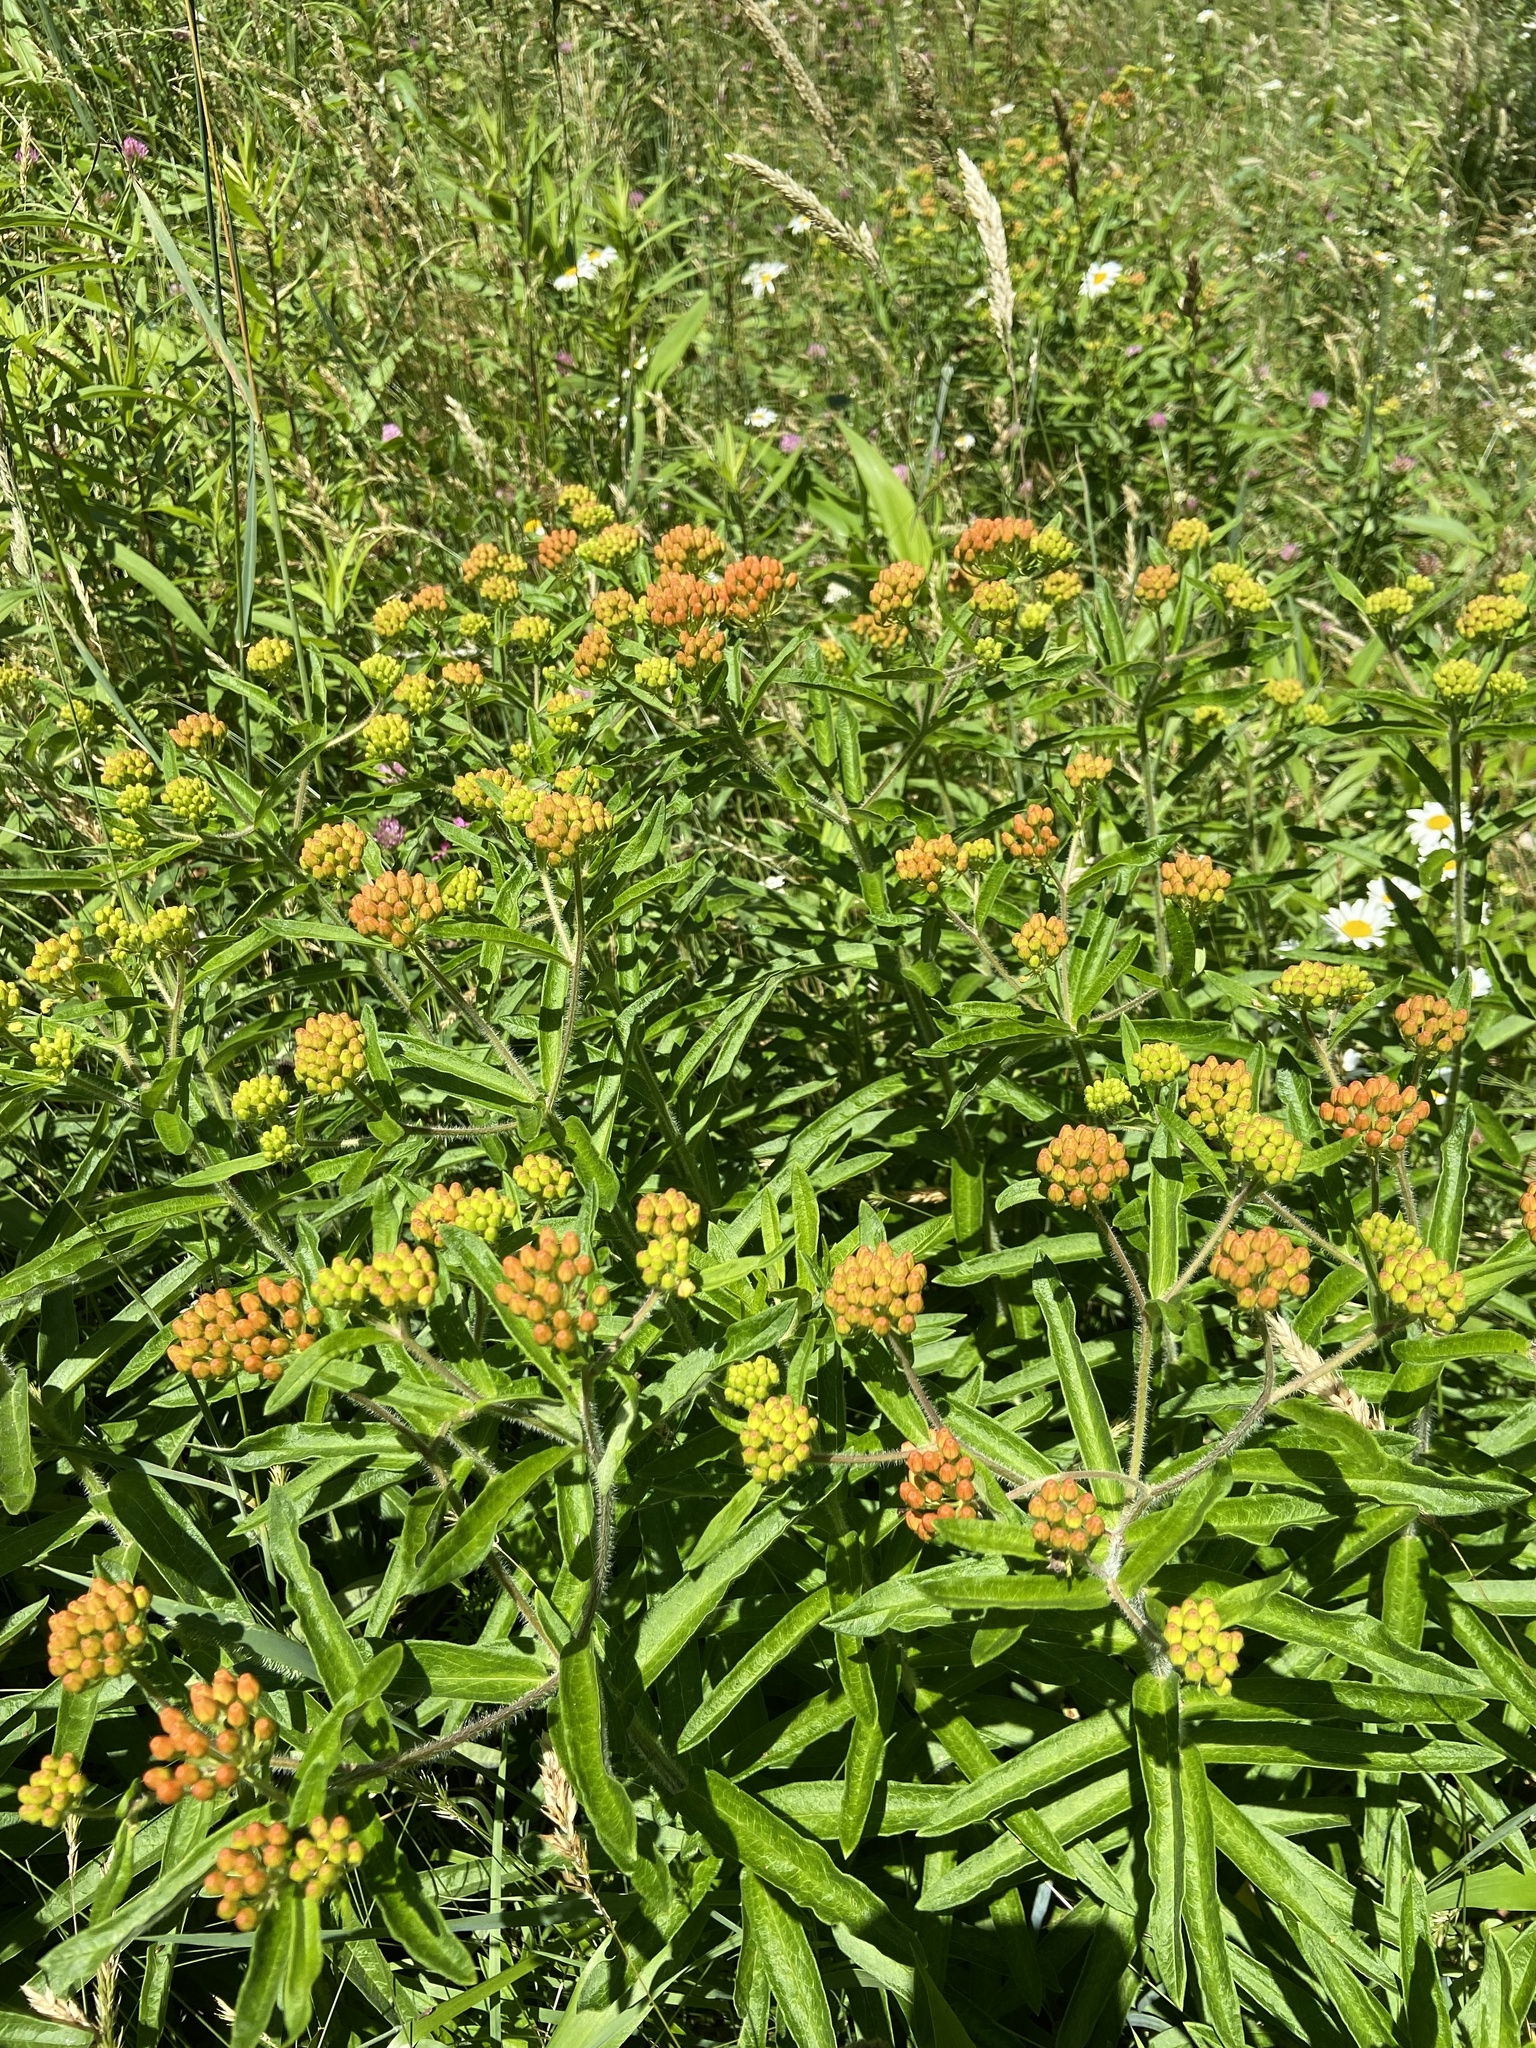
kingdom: Plantae
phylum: Tracheophyta
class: Magnoliopsida
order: Gentianales
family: Apocynaceae
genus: Asclepias
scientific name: Asclepias tuberosa
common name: Butterfly milkweed
